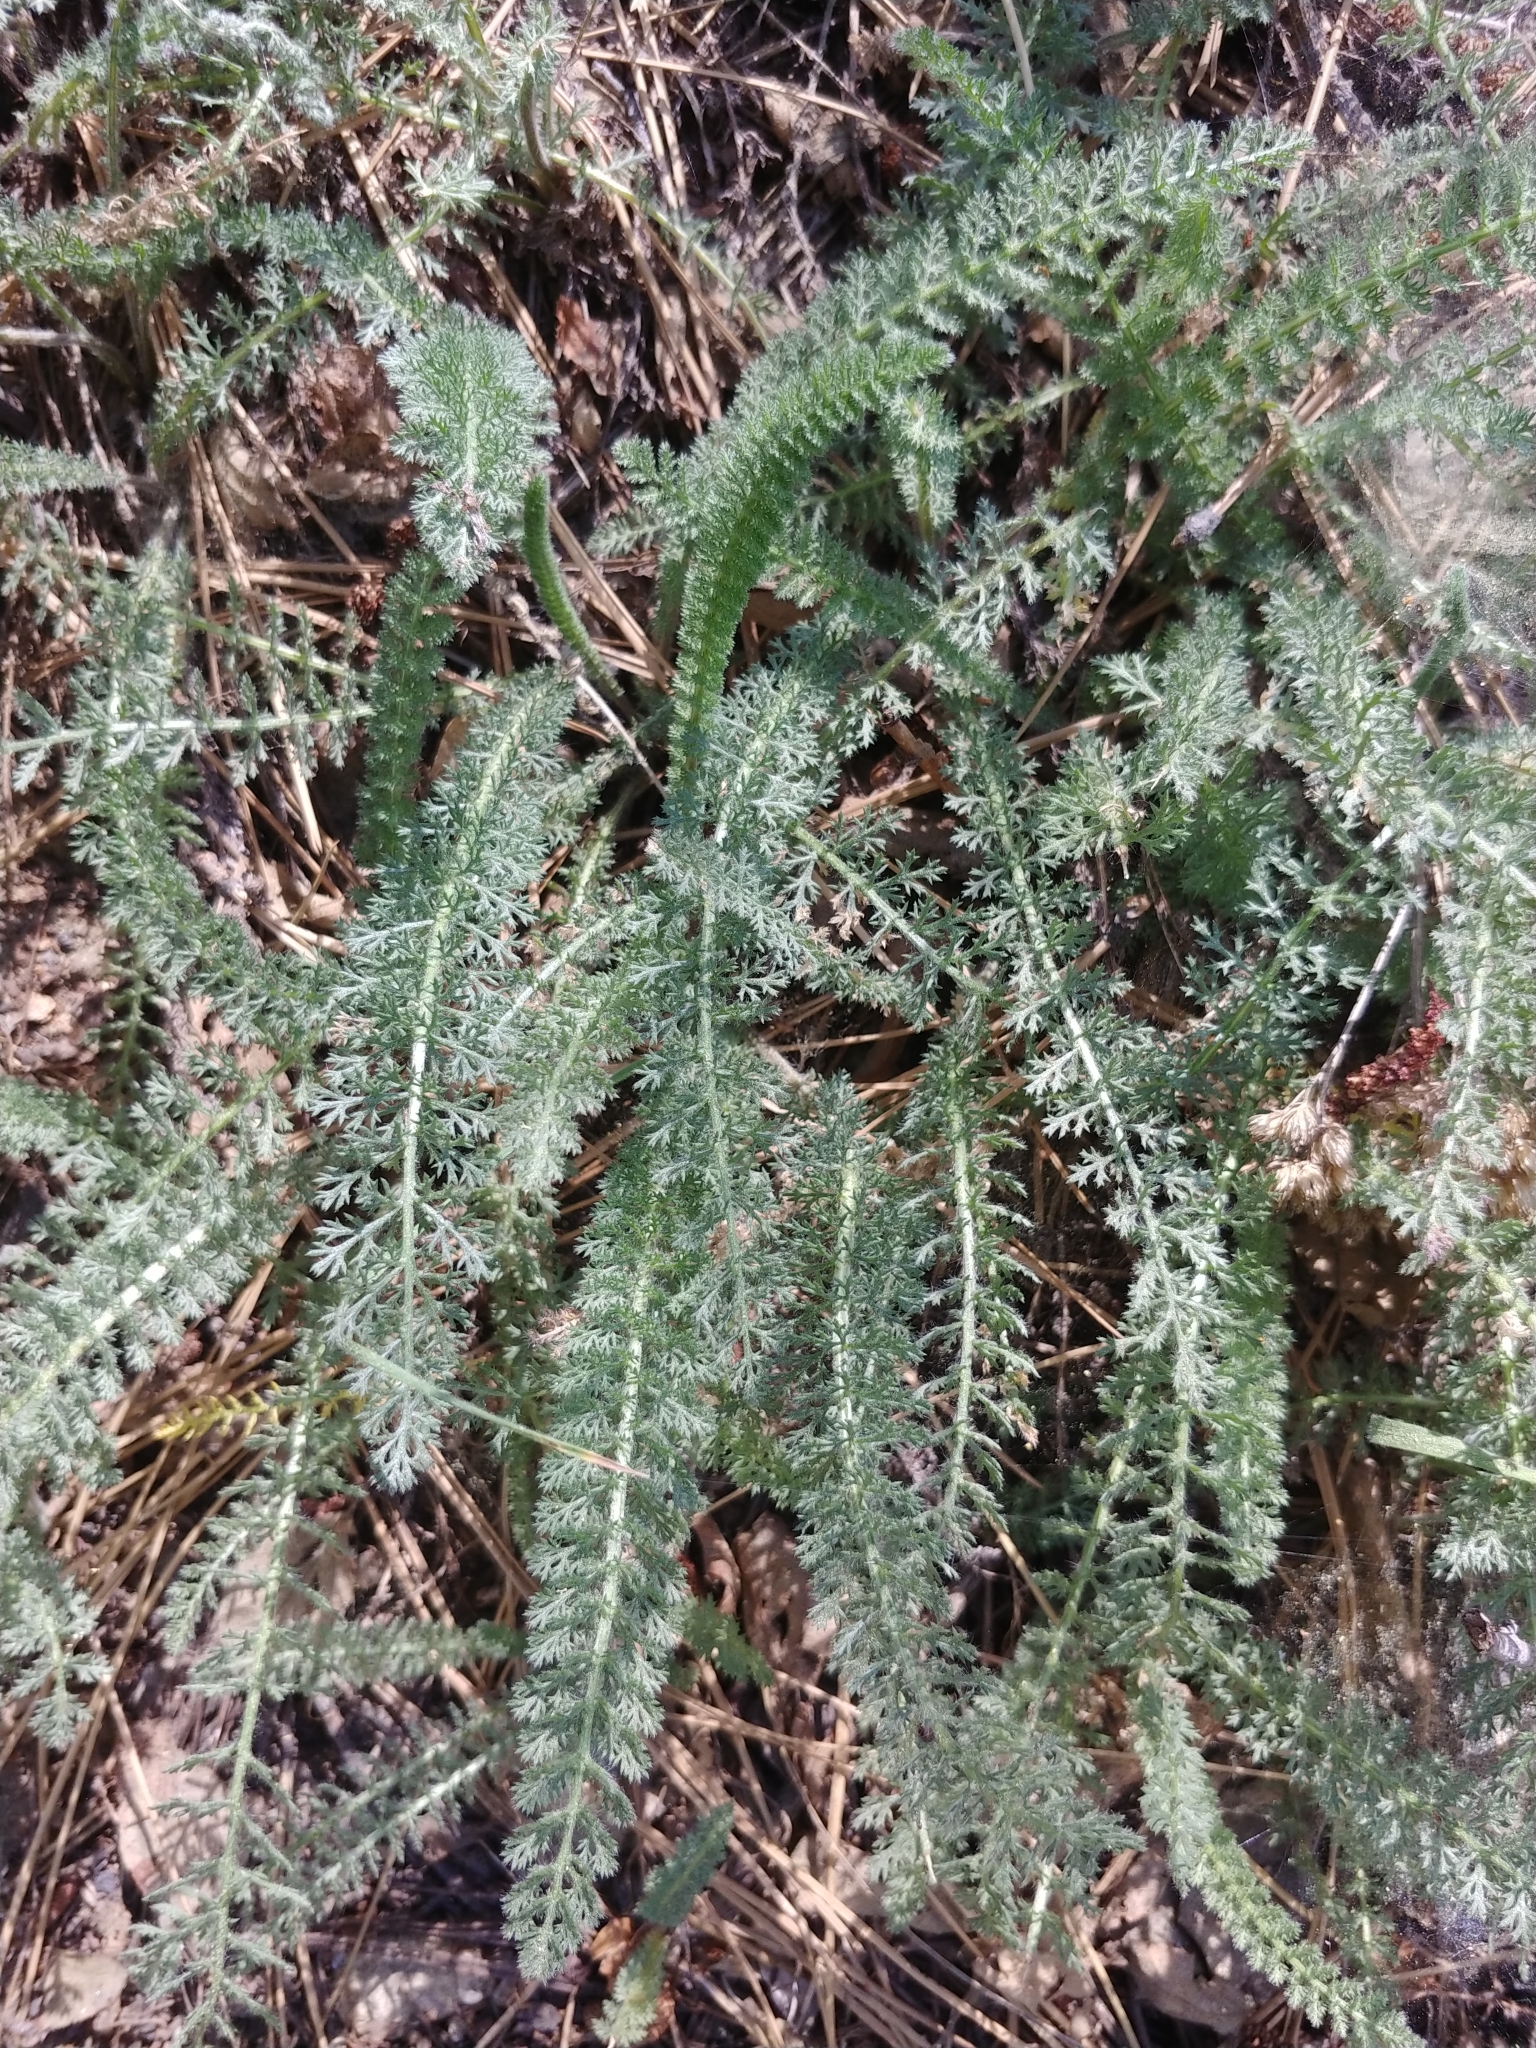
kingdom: Plantae
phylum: Tracheophyta
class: Magnoliopsida
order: Asterales
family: Asteraceae
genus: Achillea
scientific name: Achillea millefolium
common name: Yarrow
